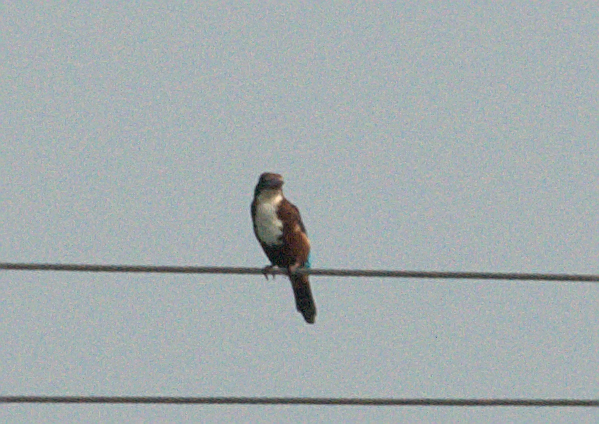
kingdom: Animalia
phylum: Chordata
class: Aves
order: Coraciiformes
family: Alcedinidae
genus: Halcyon
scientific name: Halcyon smyrnensis
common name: White-throated kingfisher
